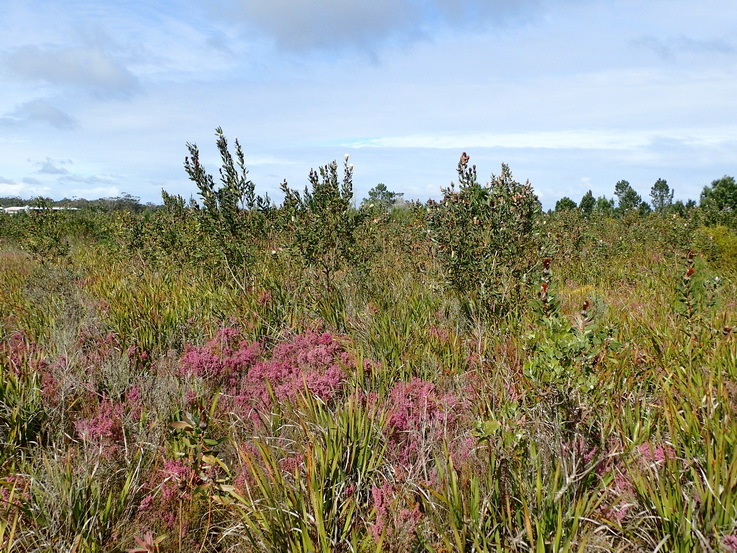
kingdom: Plantae
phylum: Tracheophyta
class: Magnoliopsida
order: Proteales
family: Proteaceae
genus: Protea
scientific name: Protea mundii
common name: Forest sugarbush
